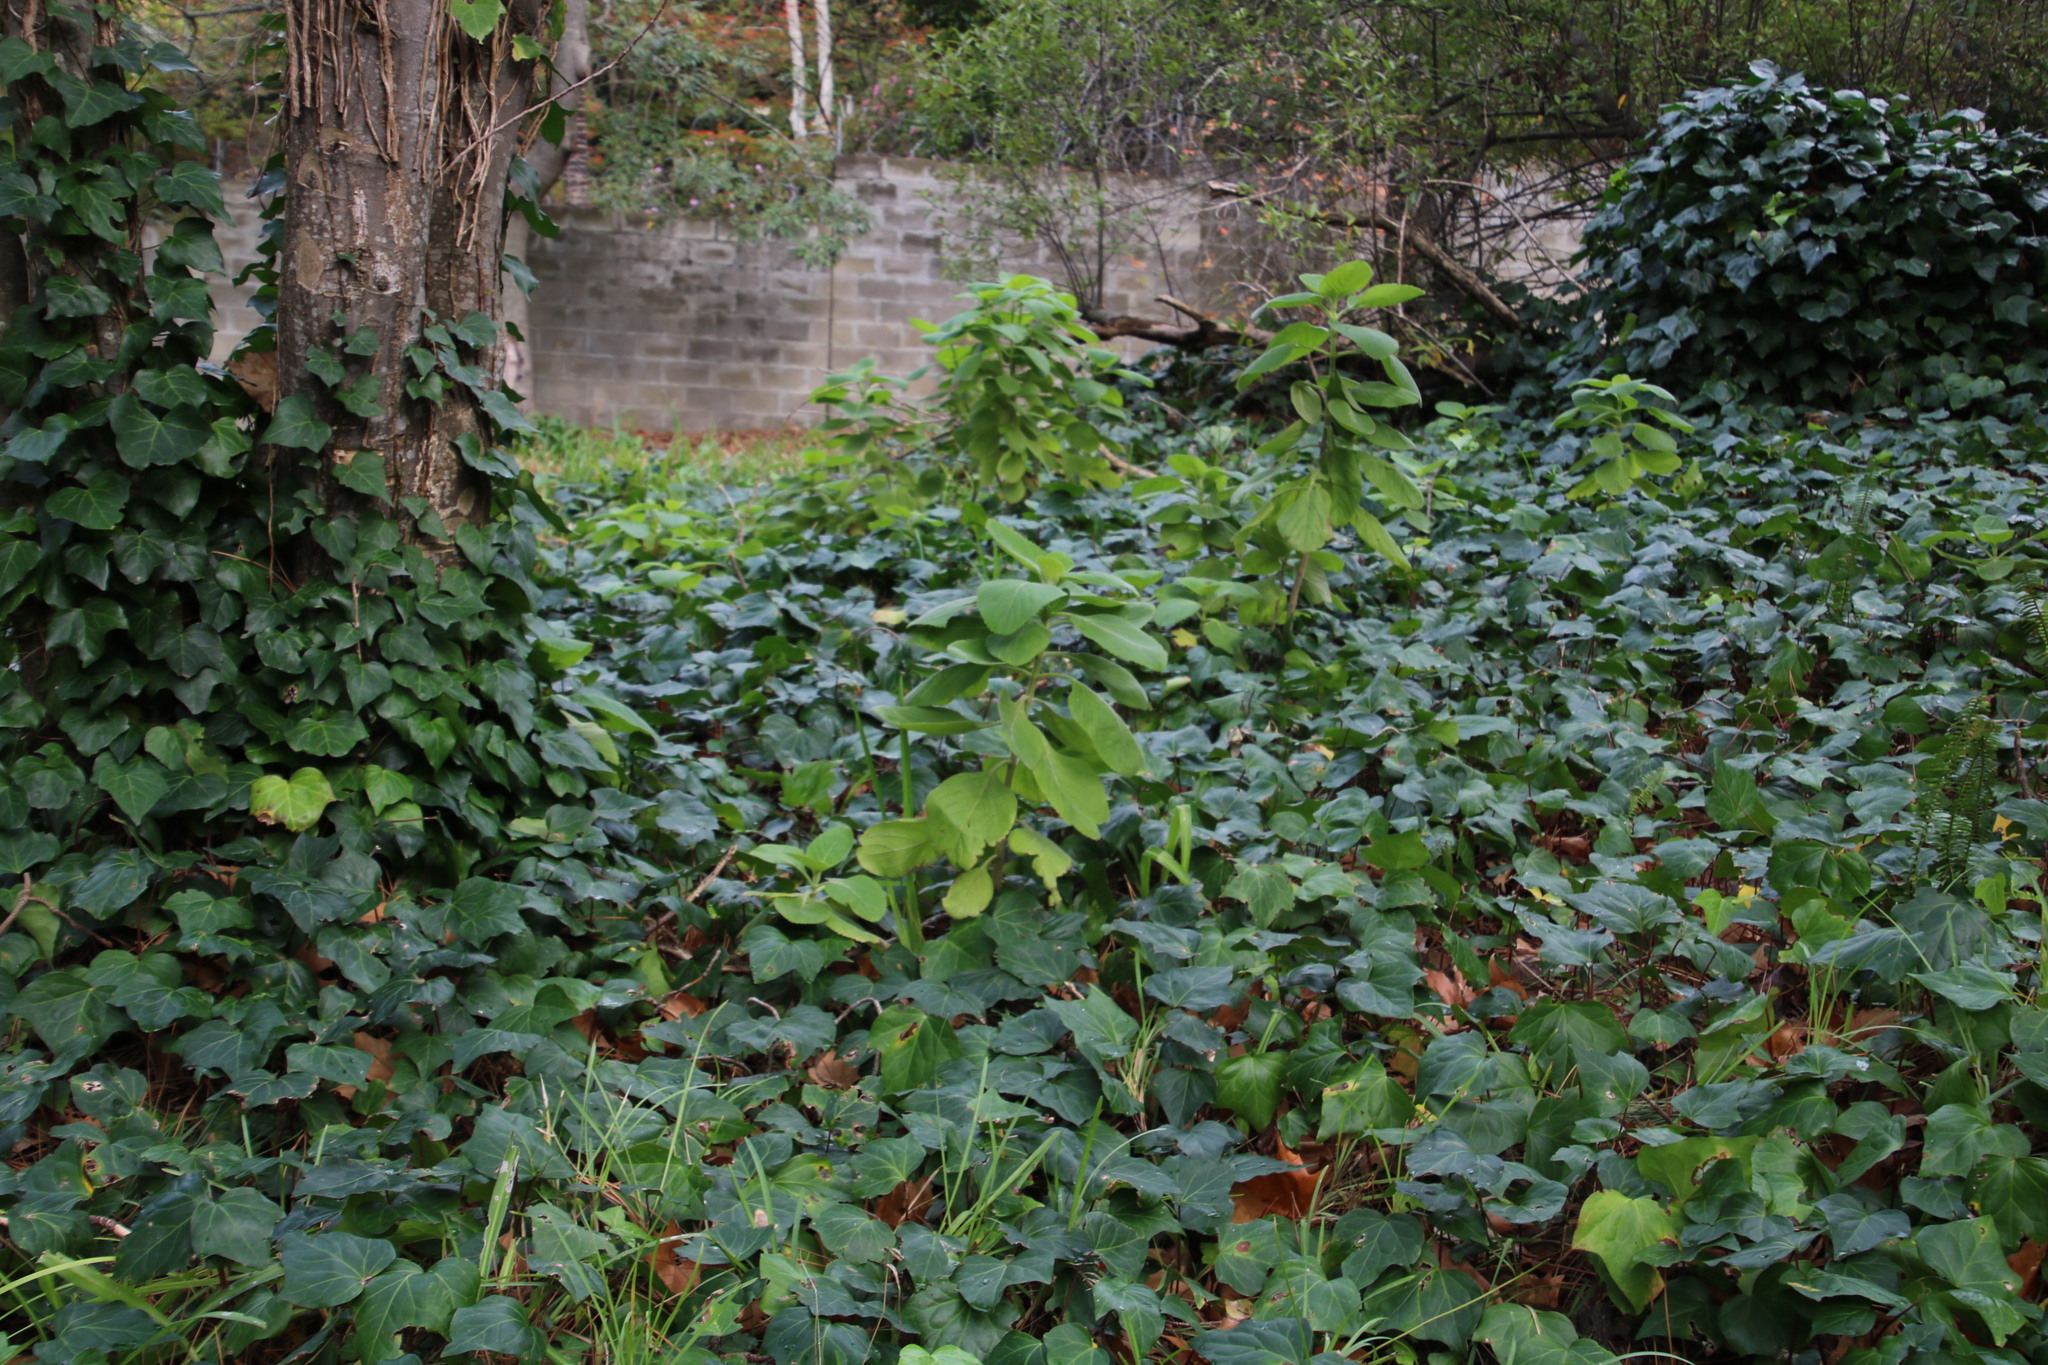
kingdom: Plantae
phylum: Tracheophyta
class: Magnoliopsida
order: Lamiales
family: Lamiaceae
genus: Coleus
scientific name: Coleus barbatus
